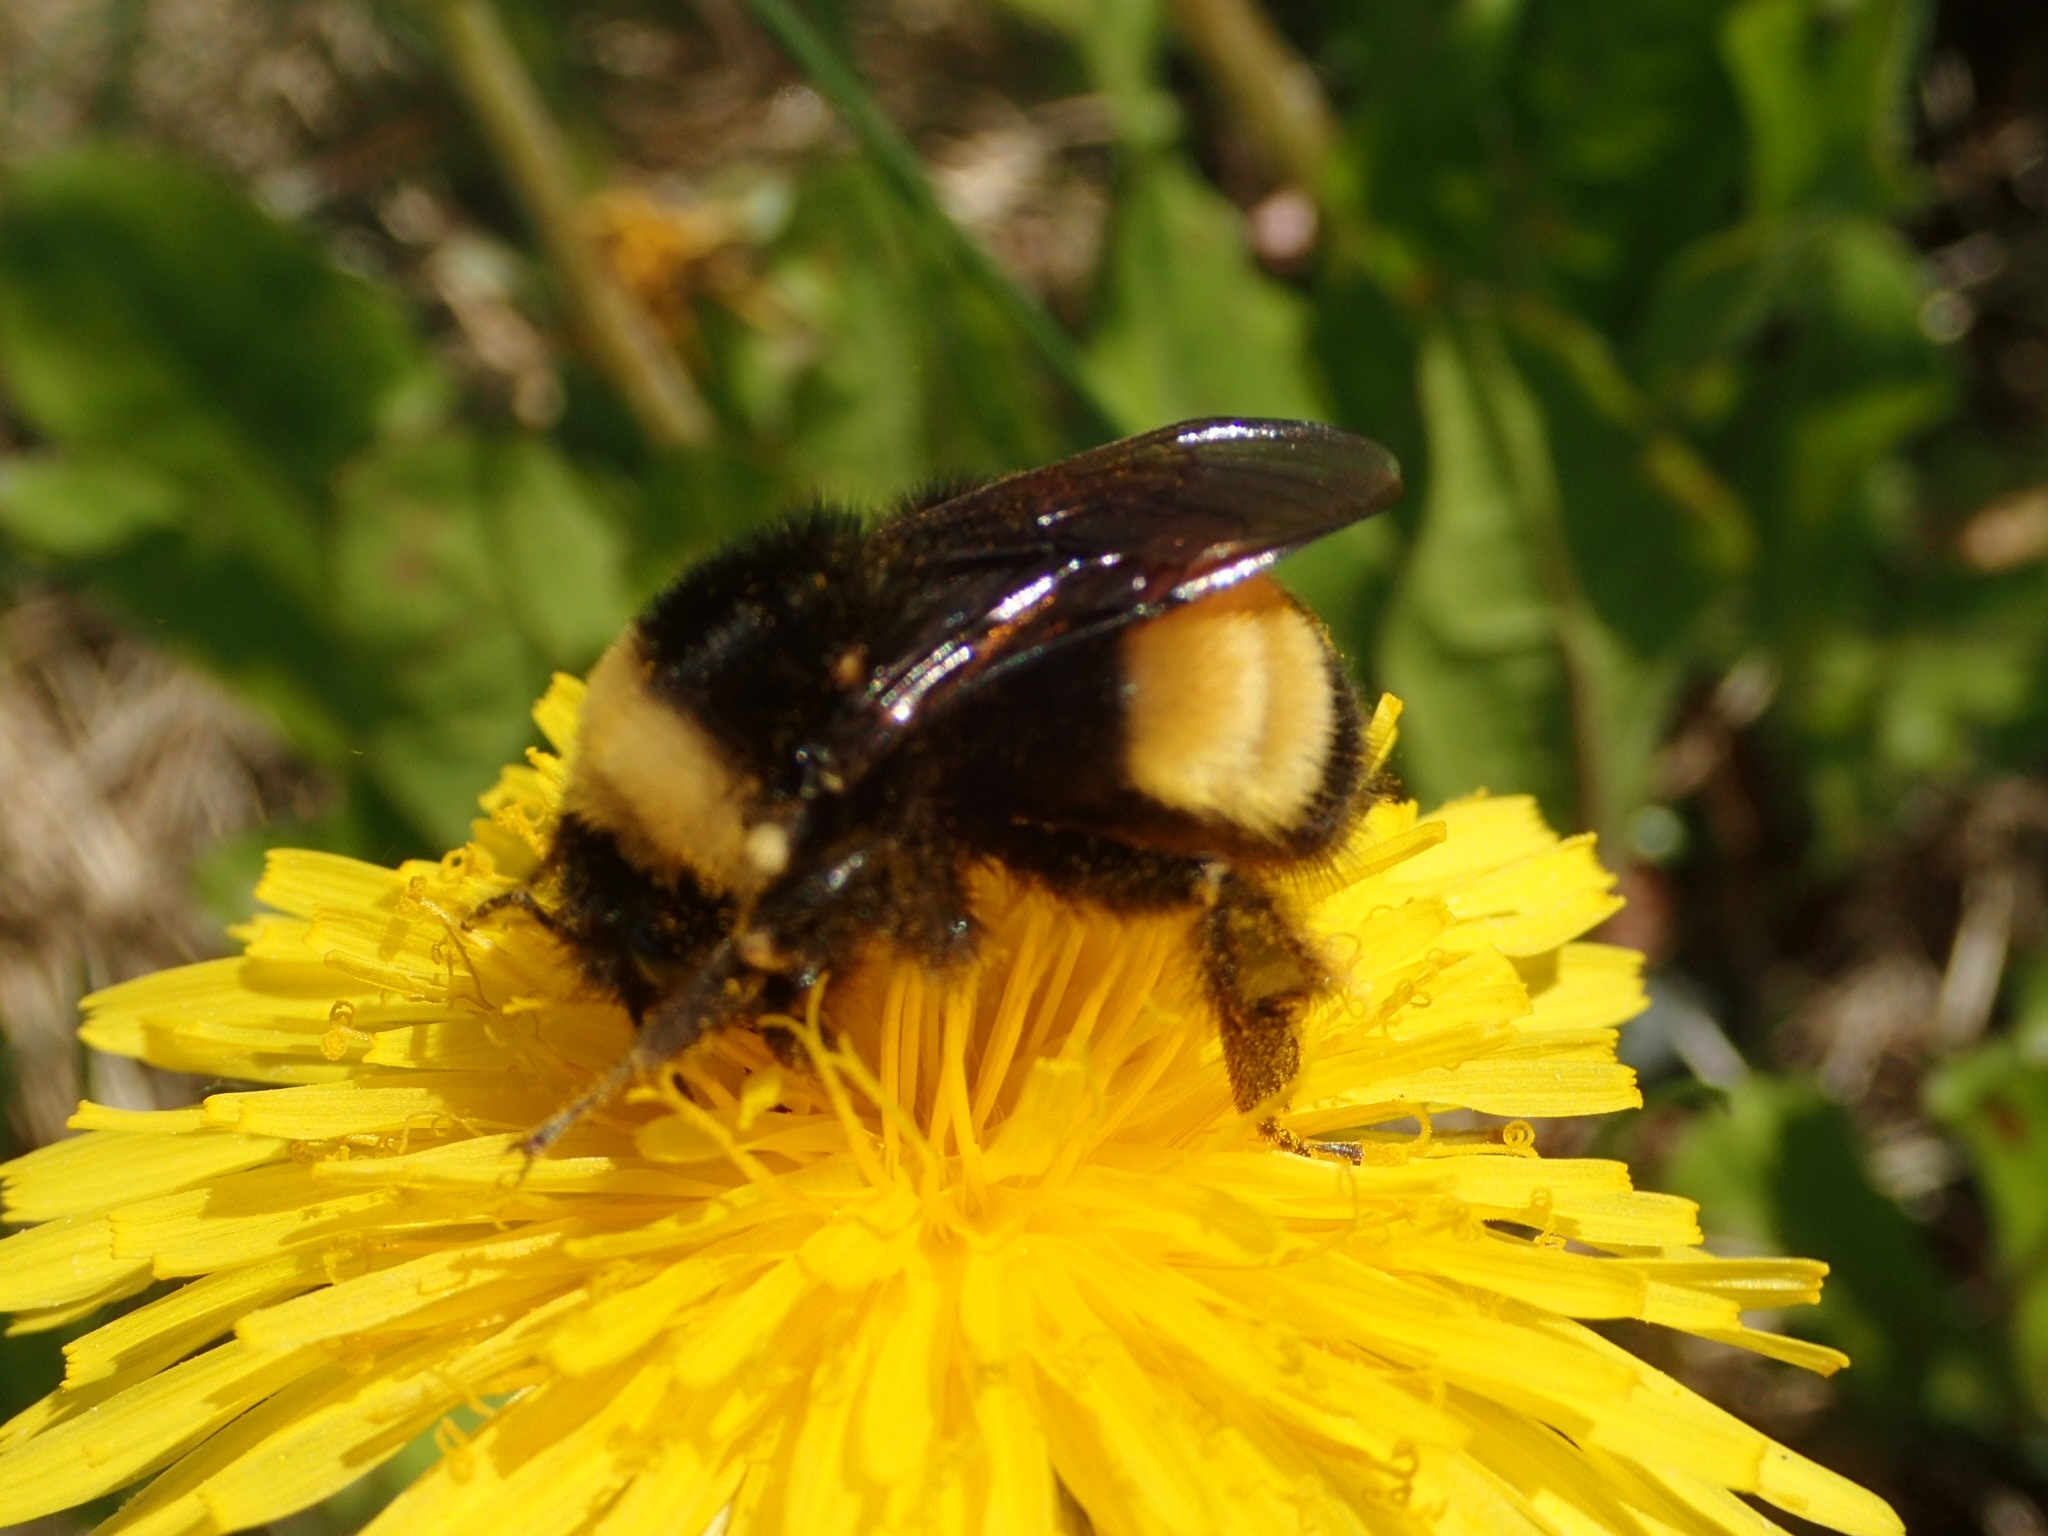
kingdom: Animalia
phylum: Arthropoda
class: Insecta
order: Hymenoptera
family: Apidae
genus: Bombus
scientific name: Bombus terricola
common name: Yellow-banded bumble bee
